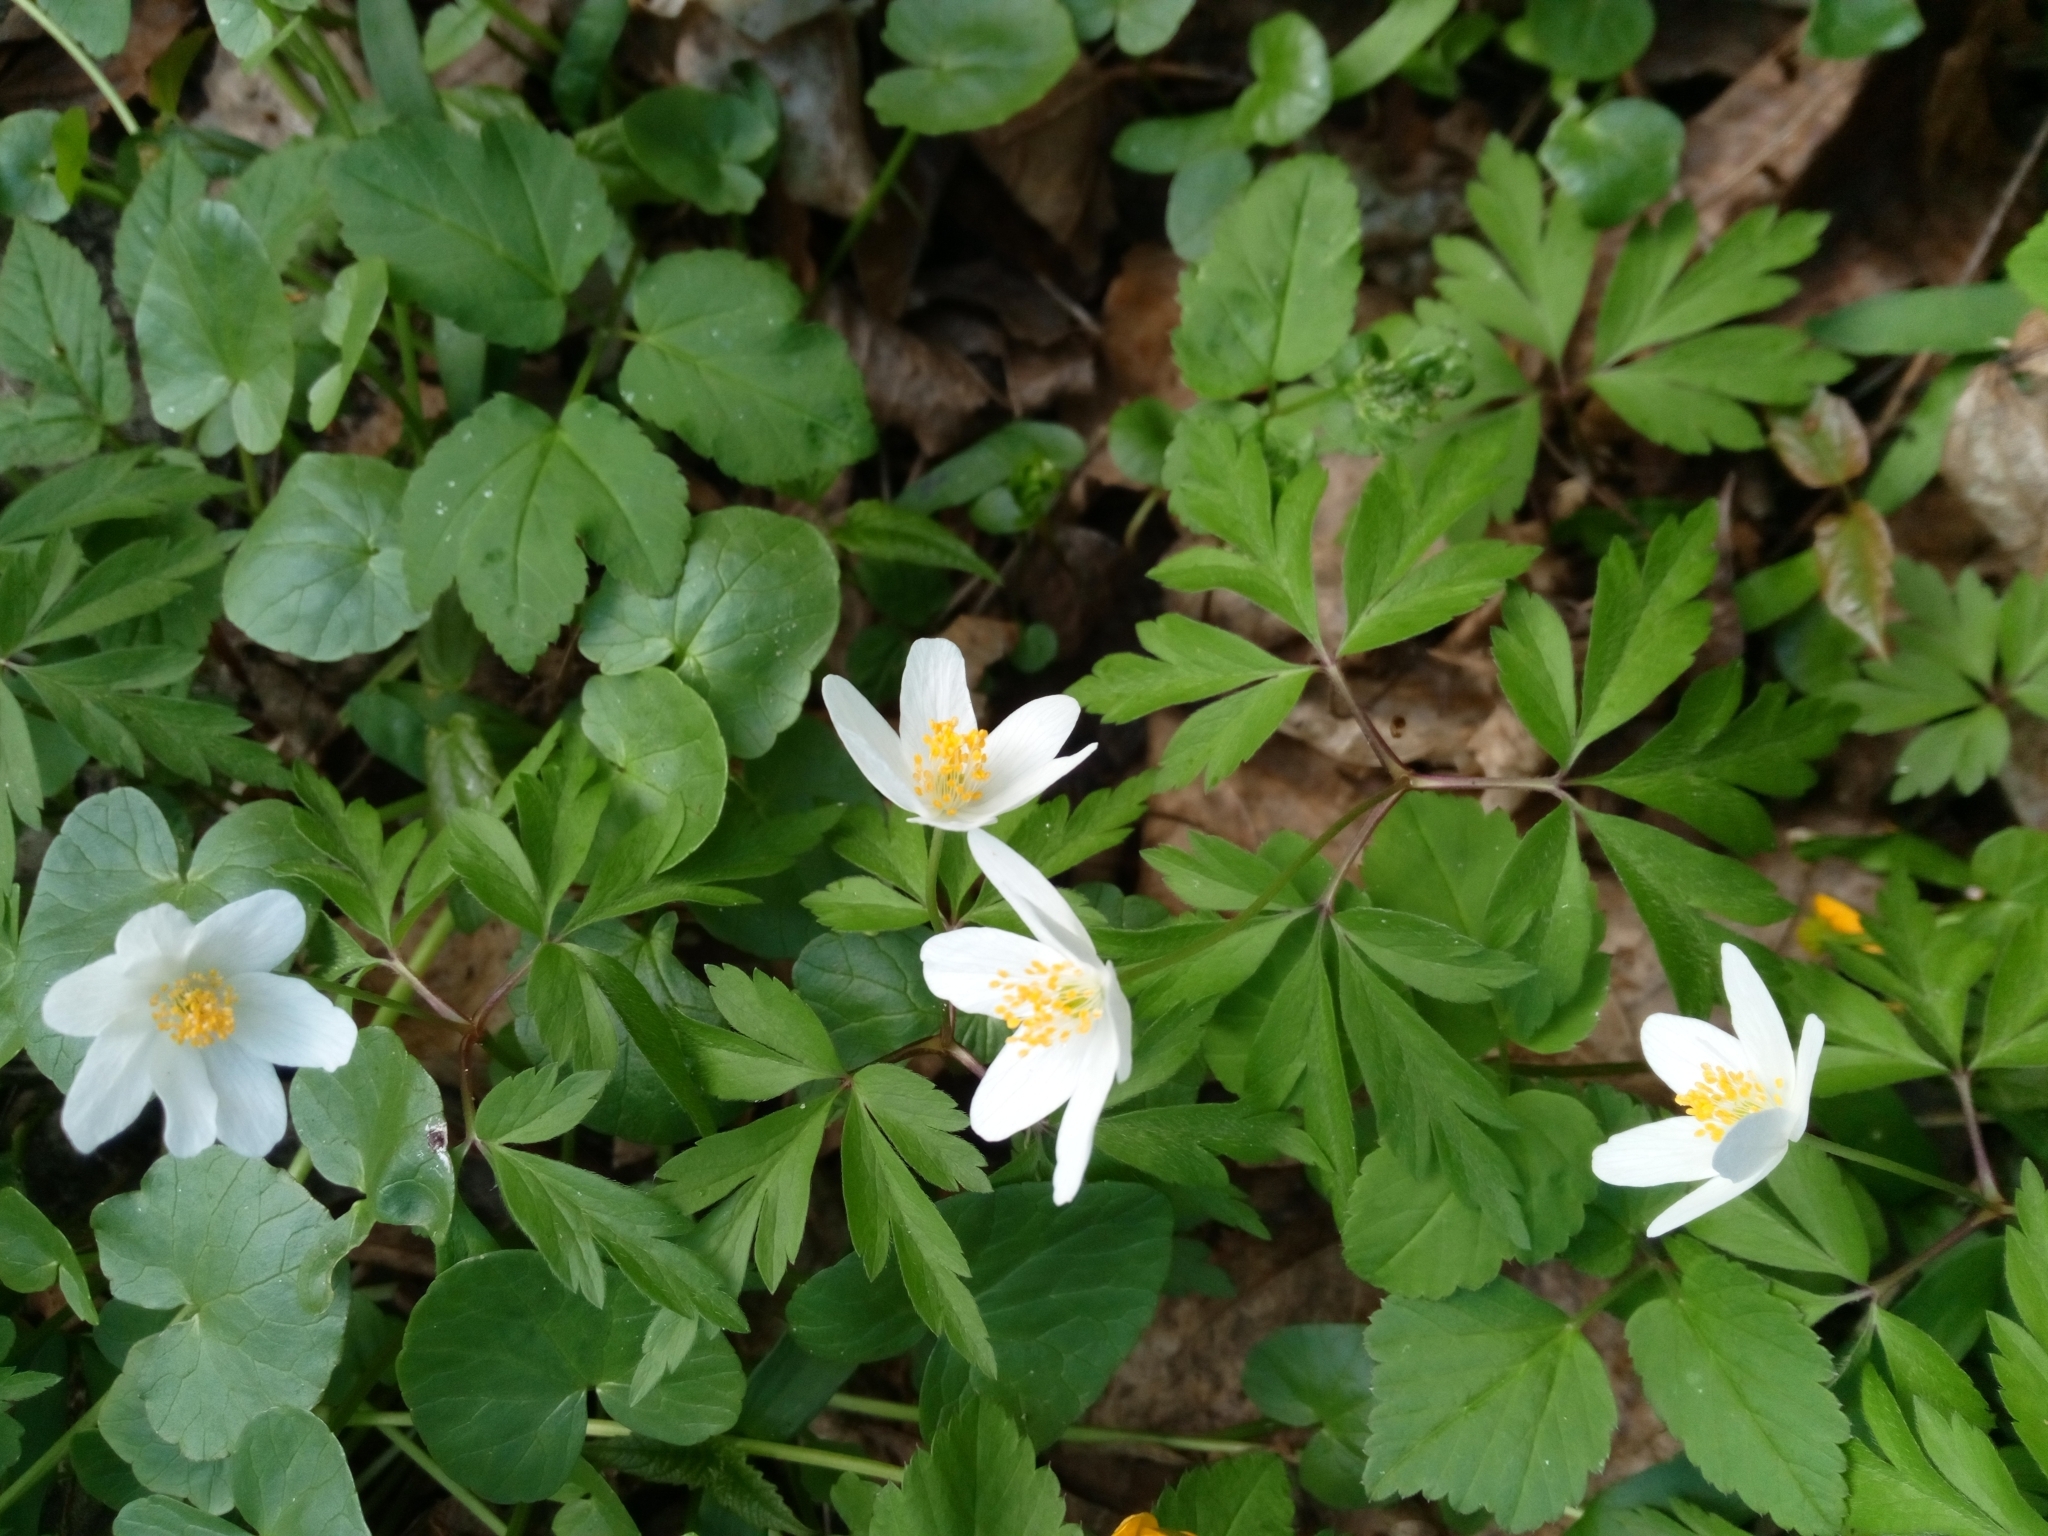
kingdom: Plantae
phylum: Tracheophyta
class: Magnoliopsida
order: Ranunculales
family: Ranunculaceae
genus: Anemone
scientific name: Anemone nemorosa
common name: Wood anemone
